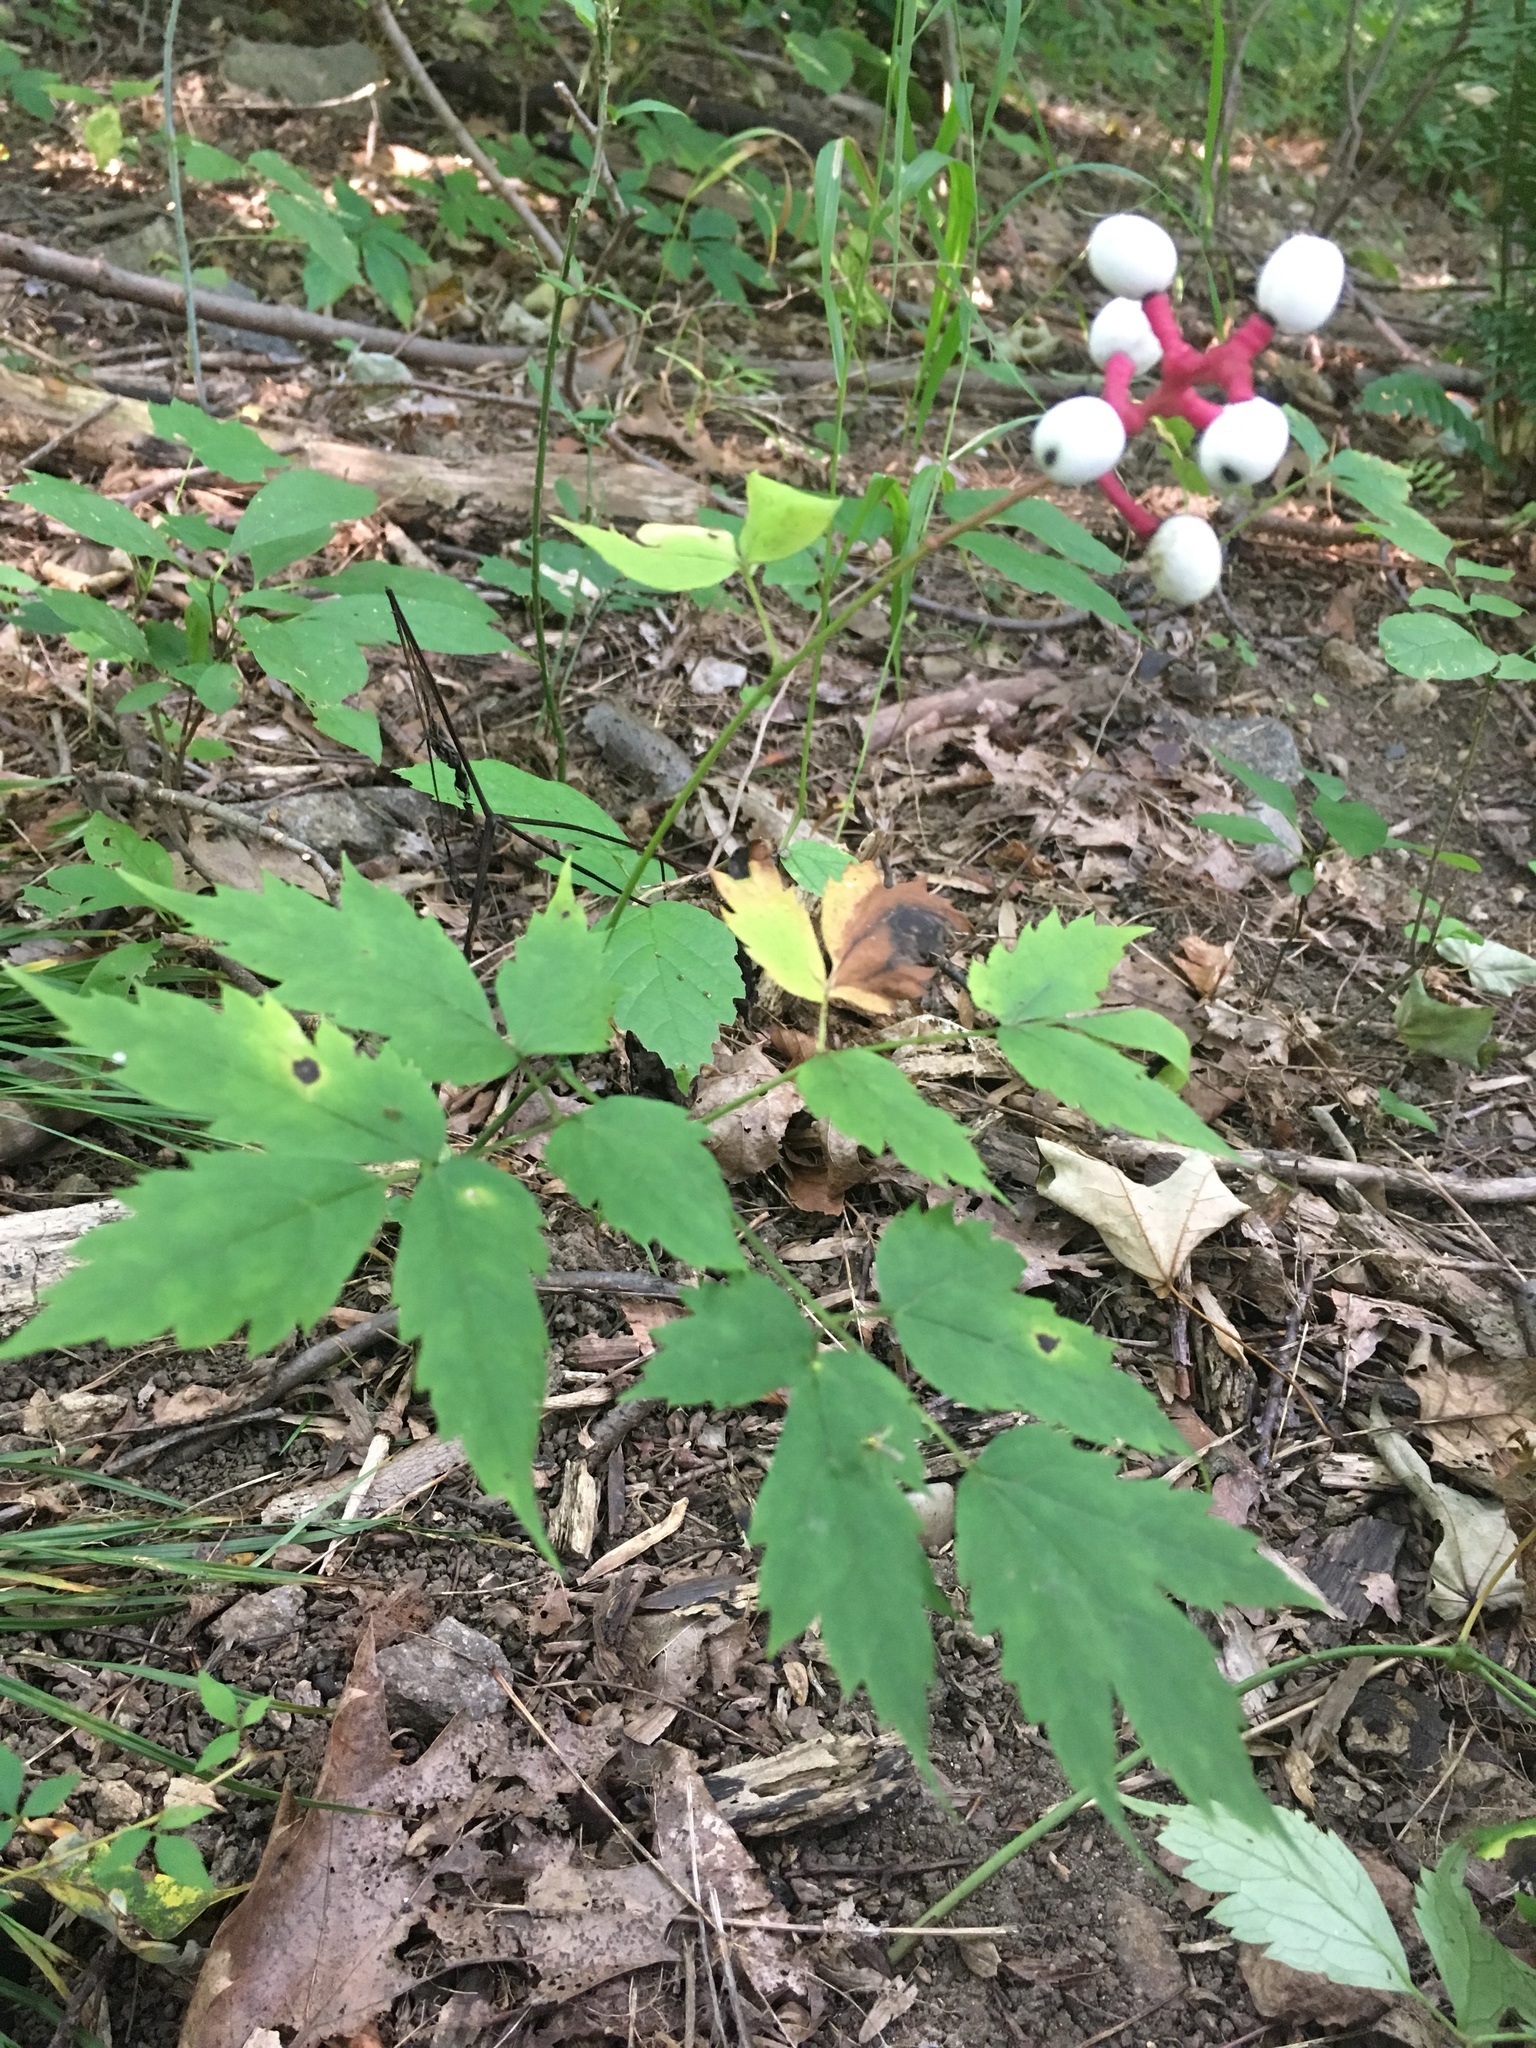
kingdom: Plantae
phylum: Tracheophyta
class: Magnoliopsida
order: Ranunculales
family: Ranunculaceae
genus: Actaea
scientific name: Actaea pachypoda
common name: Doll's-eyes
